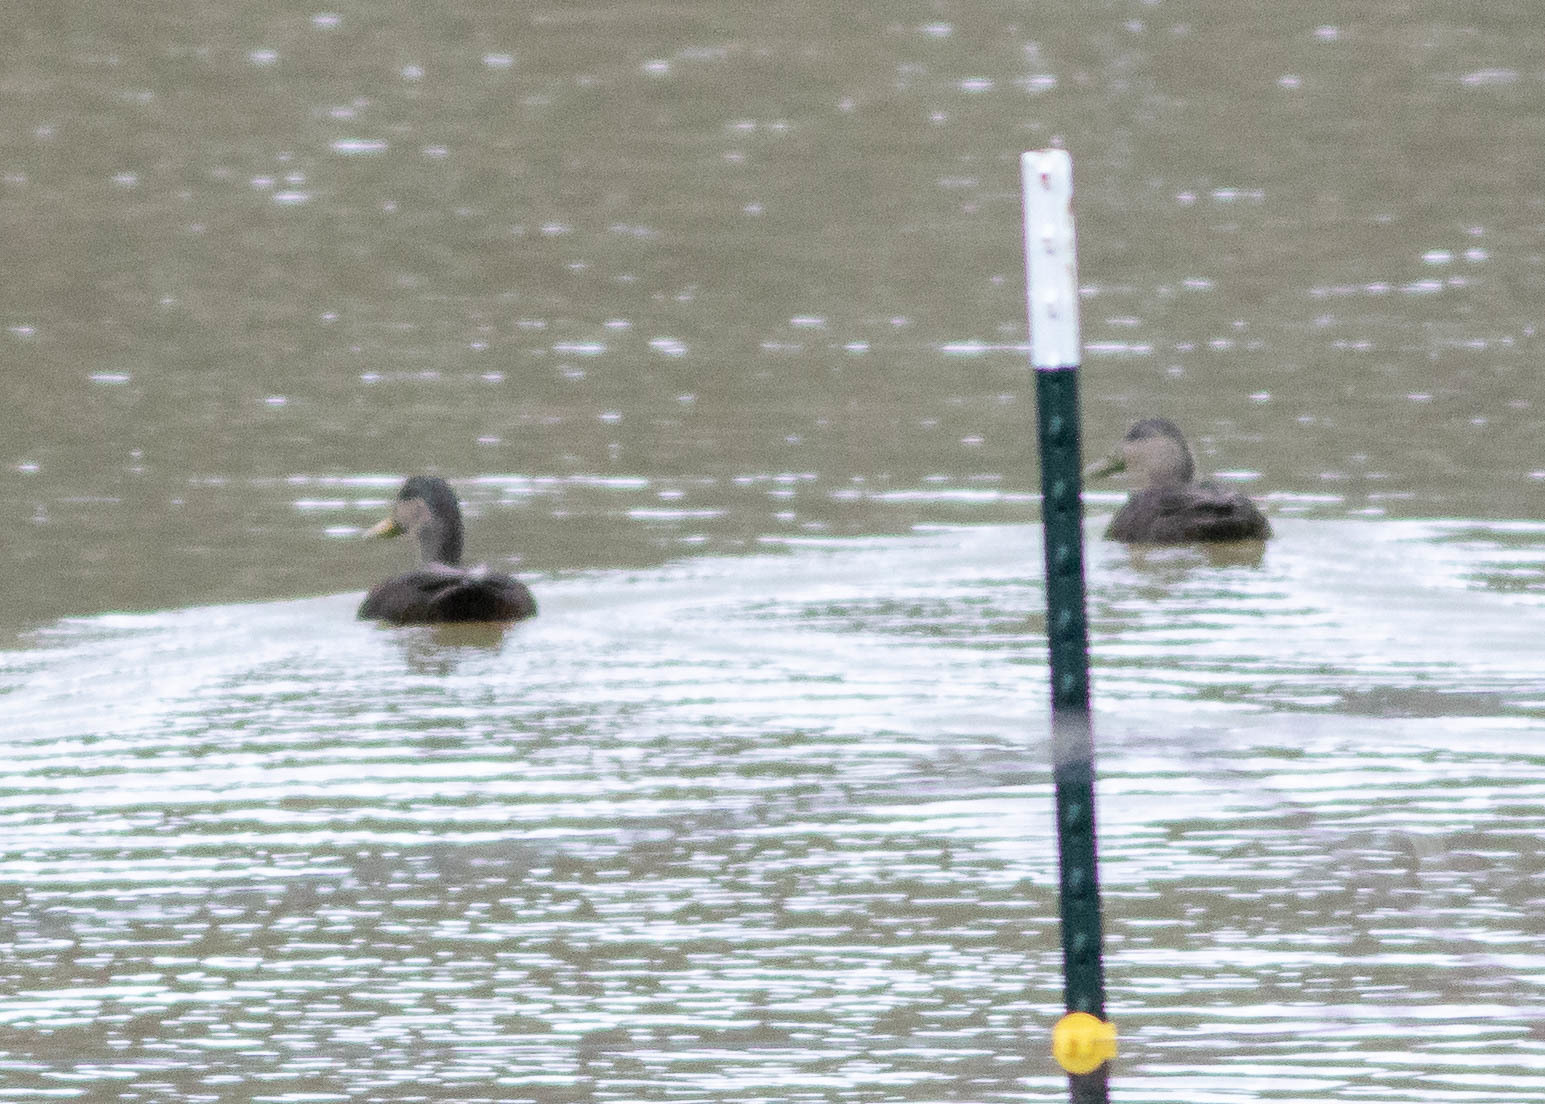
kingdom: Animalia
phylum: Chordata
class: Aves
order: Anseriformes
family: Anatidae
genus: Anas
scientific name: Anas rubripes
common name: American black duck
